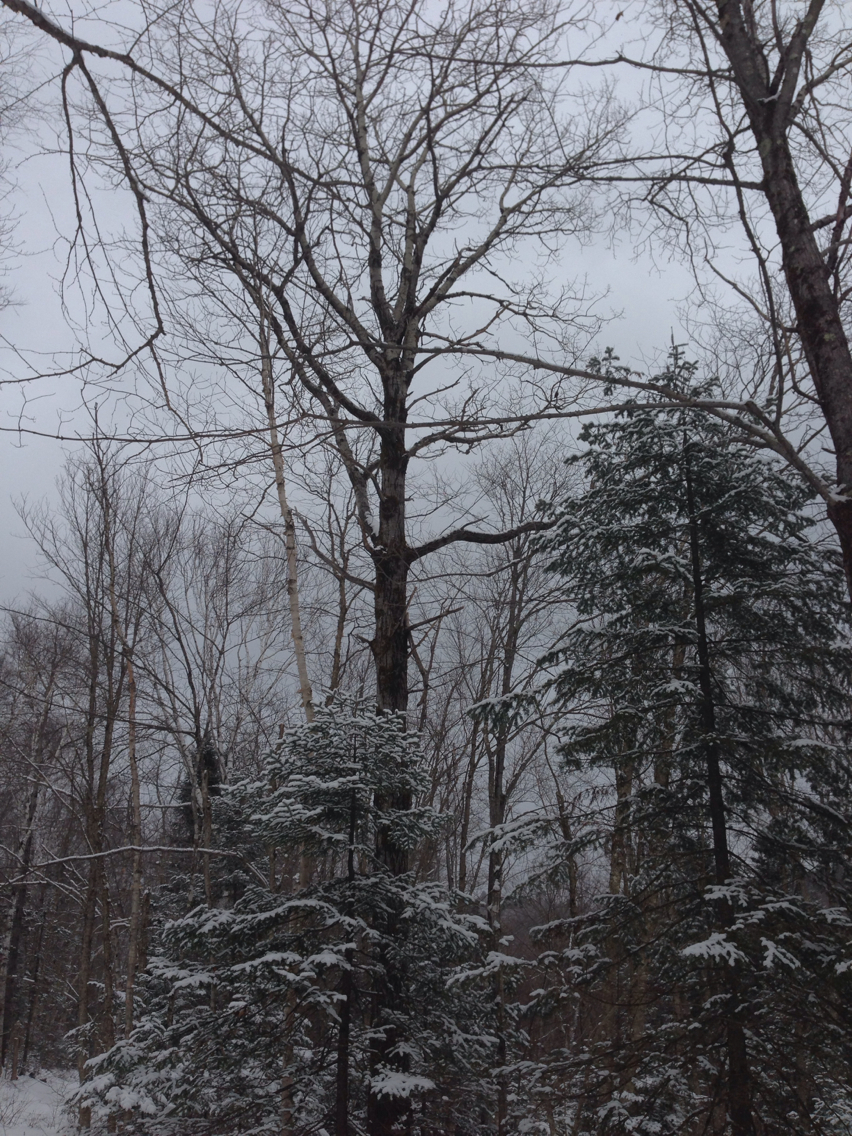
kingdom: Plantae
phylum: Tracheophyta
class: Magnoliopsida
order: Malpighiales
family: Salicaceae
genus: Populus
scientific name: Populus grandidentata
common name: Bigtooth aspen
